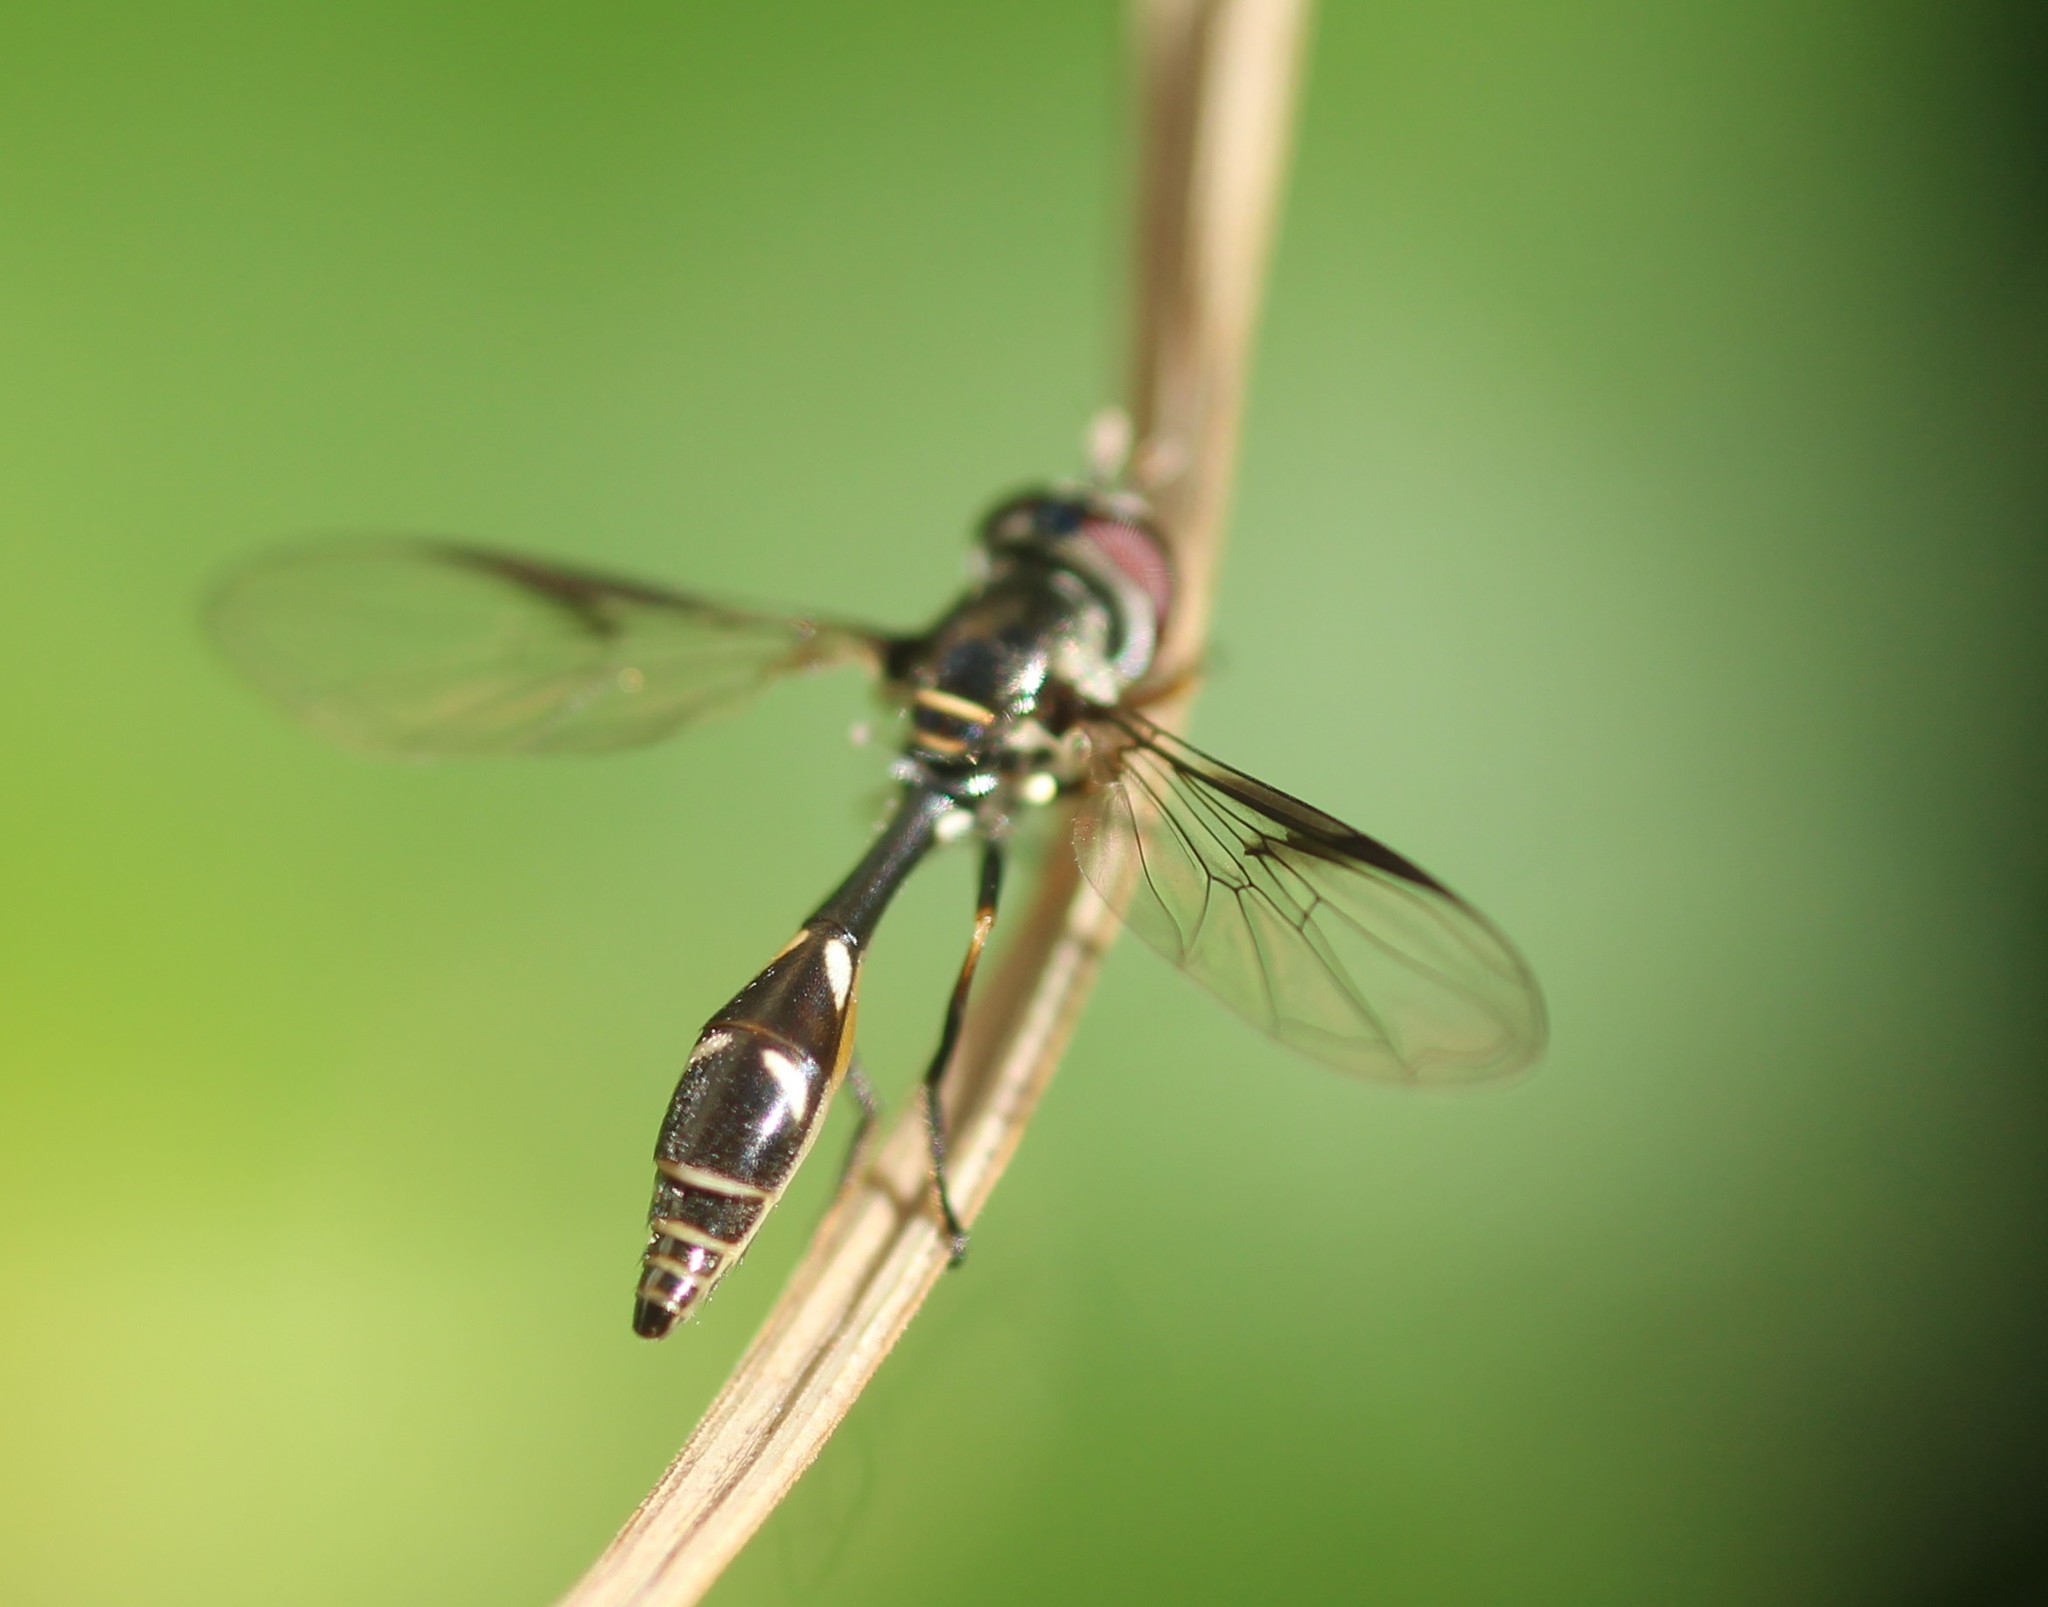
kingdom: Animalia
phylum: Arthropoda
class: Insecta
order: Diptera
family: Syrphidae
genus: Dioprosopa
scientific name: Dioprosopa clavatus
